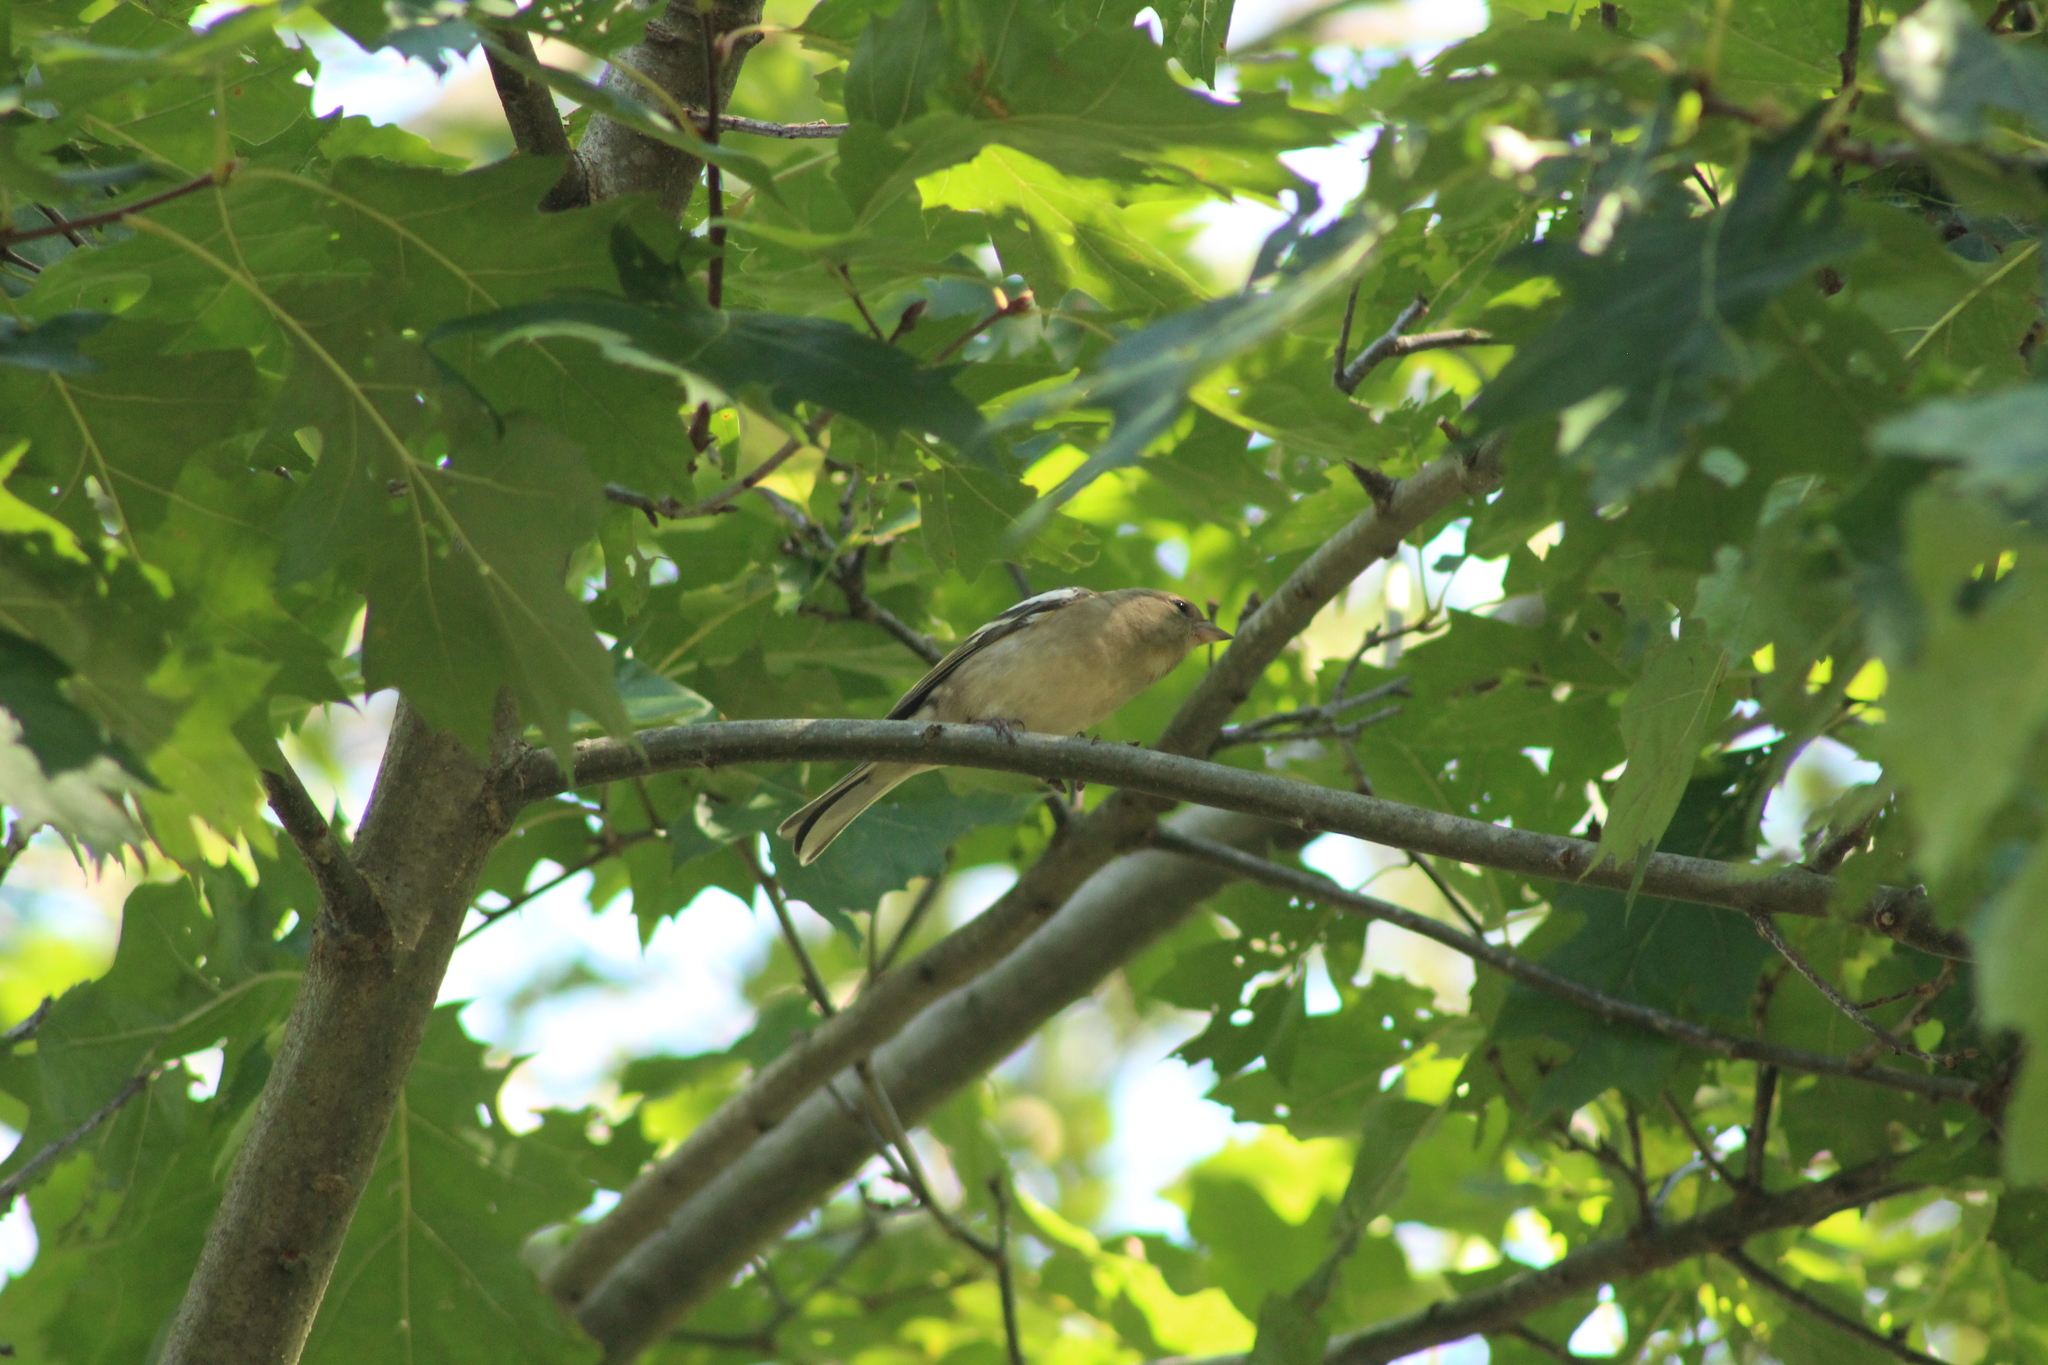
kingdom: Animalia
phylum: Chordata
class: Aves
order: Passeriformes
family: Fringillidae
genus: Fringilla
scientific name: Fringilla coelebs
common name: Common chaffinch
